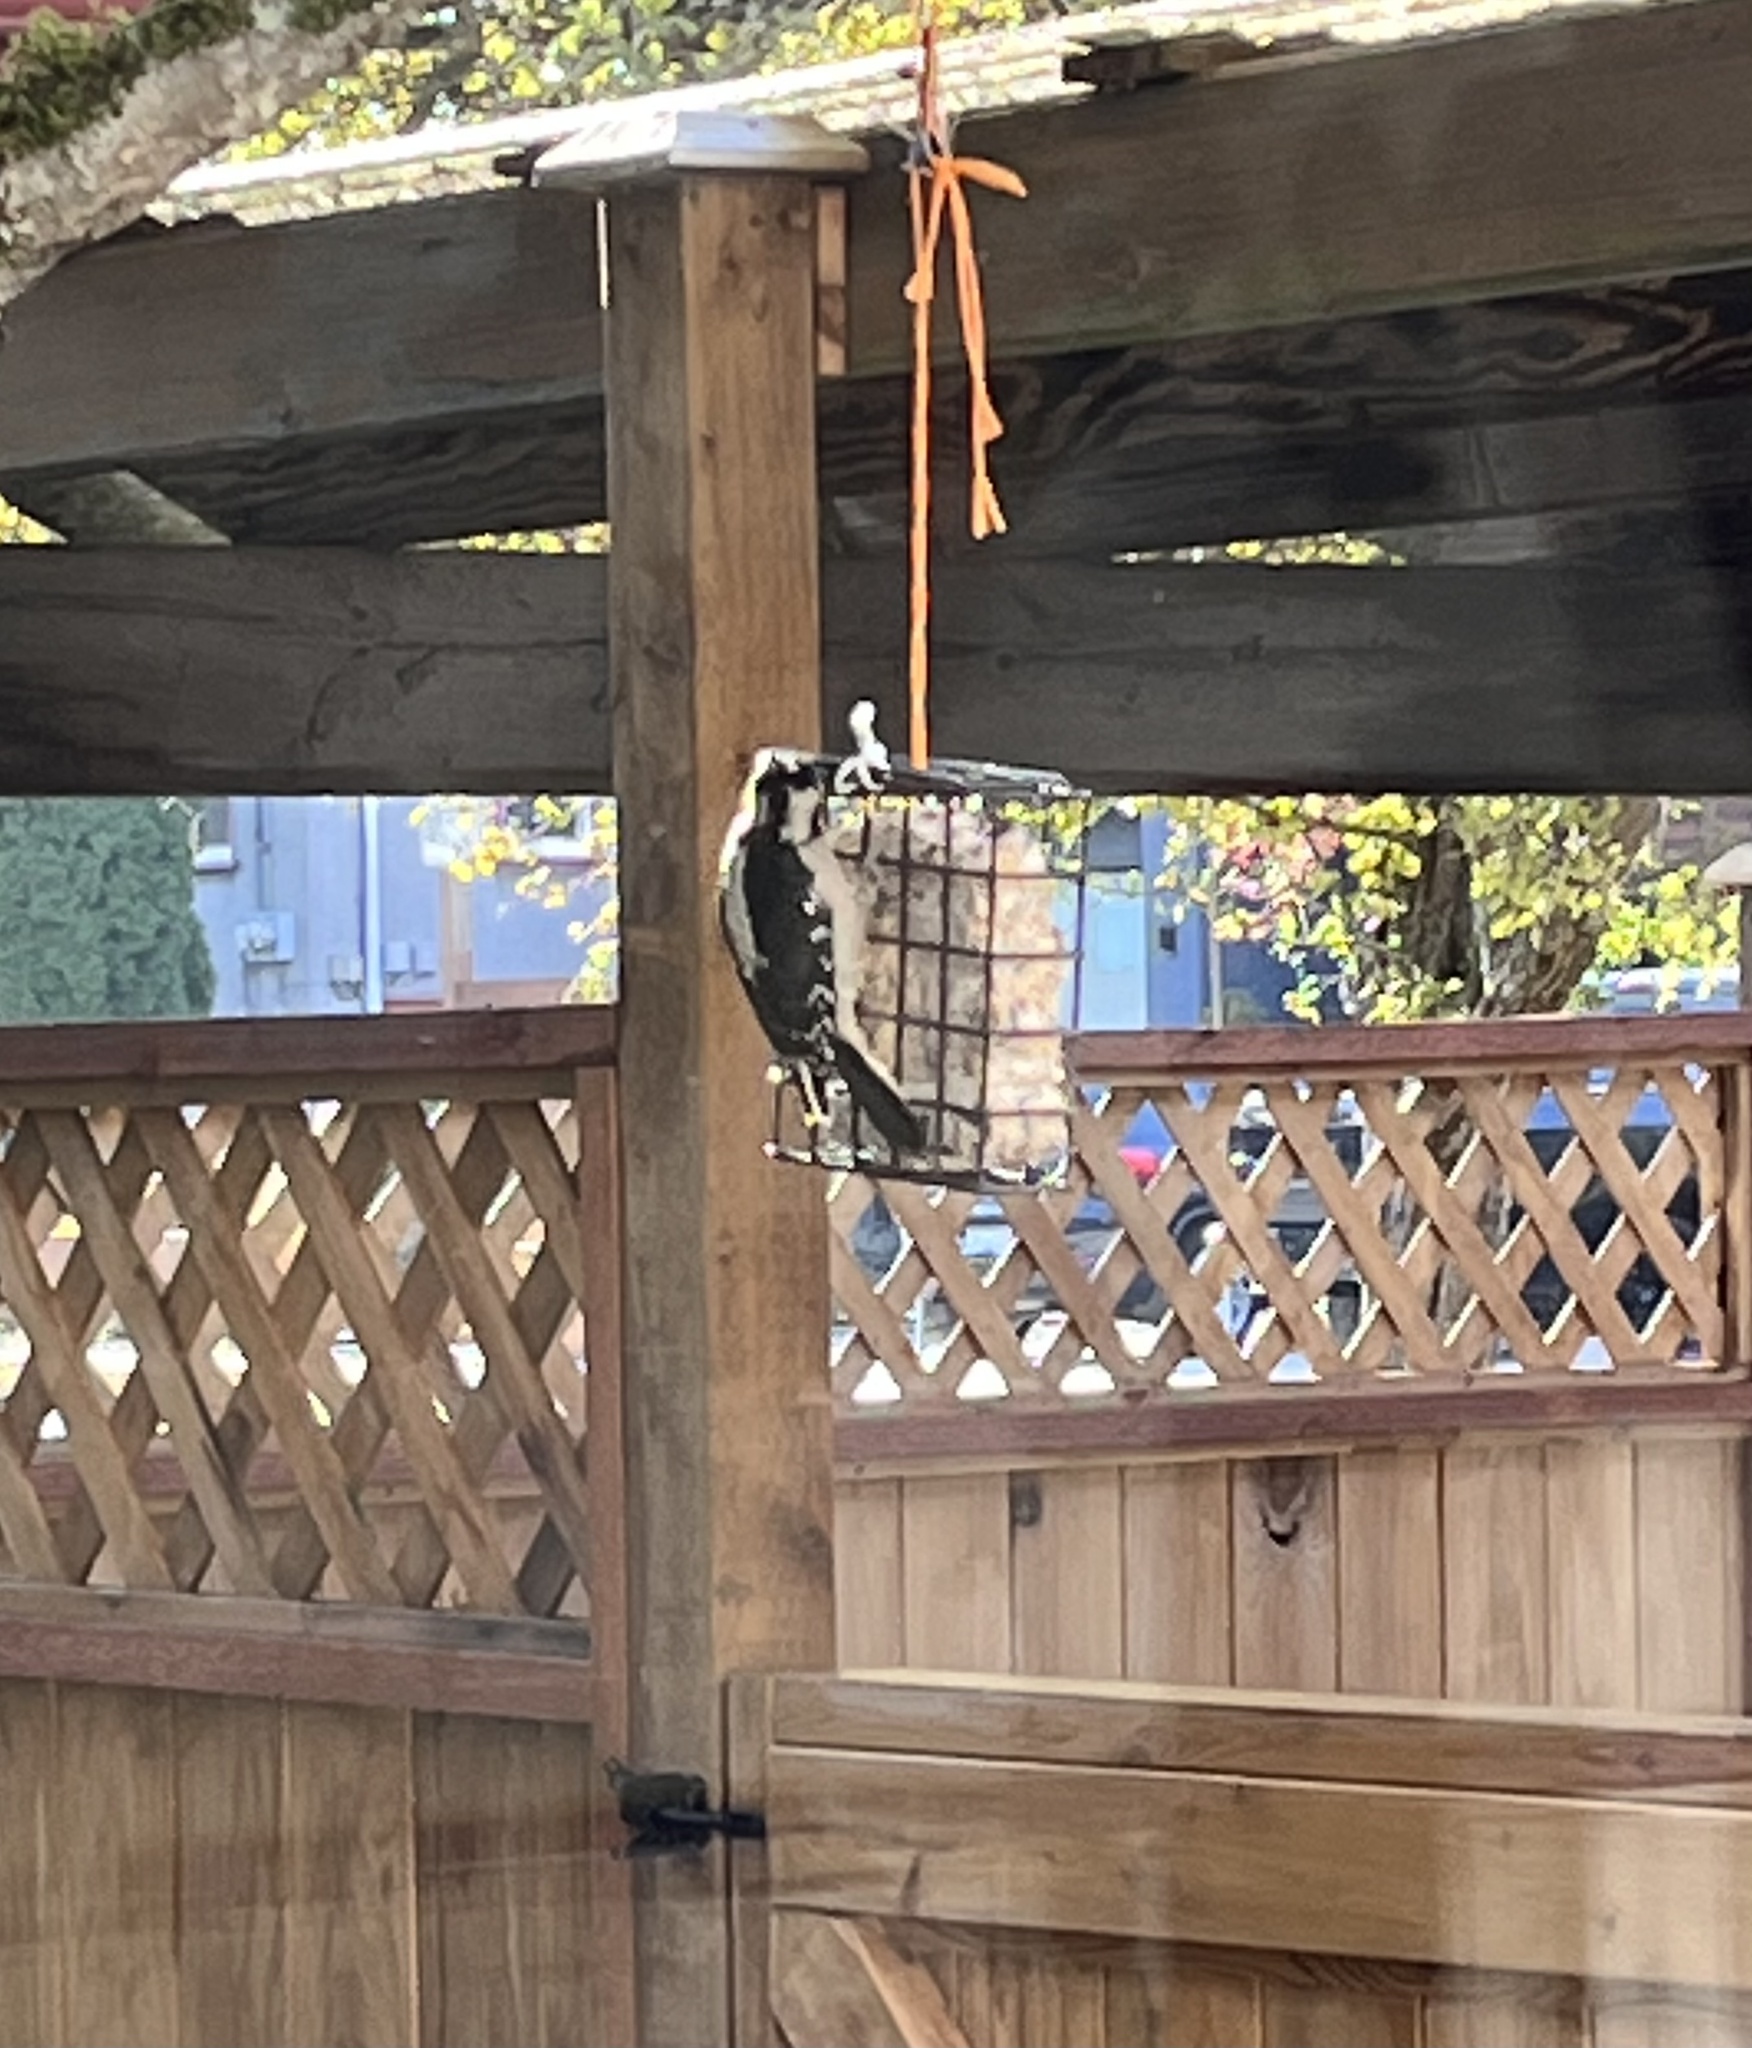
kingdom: Animalia
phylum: Chordata
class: Aves
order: Piciformes
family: Picidae
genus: Leuconotopicus
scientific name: Leuconotopicus villosus
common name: Hairy woodpecker
